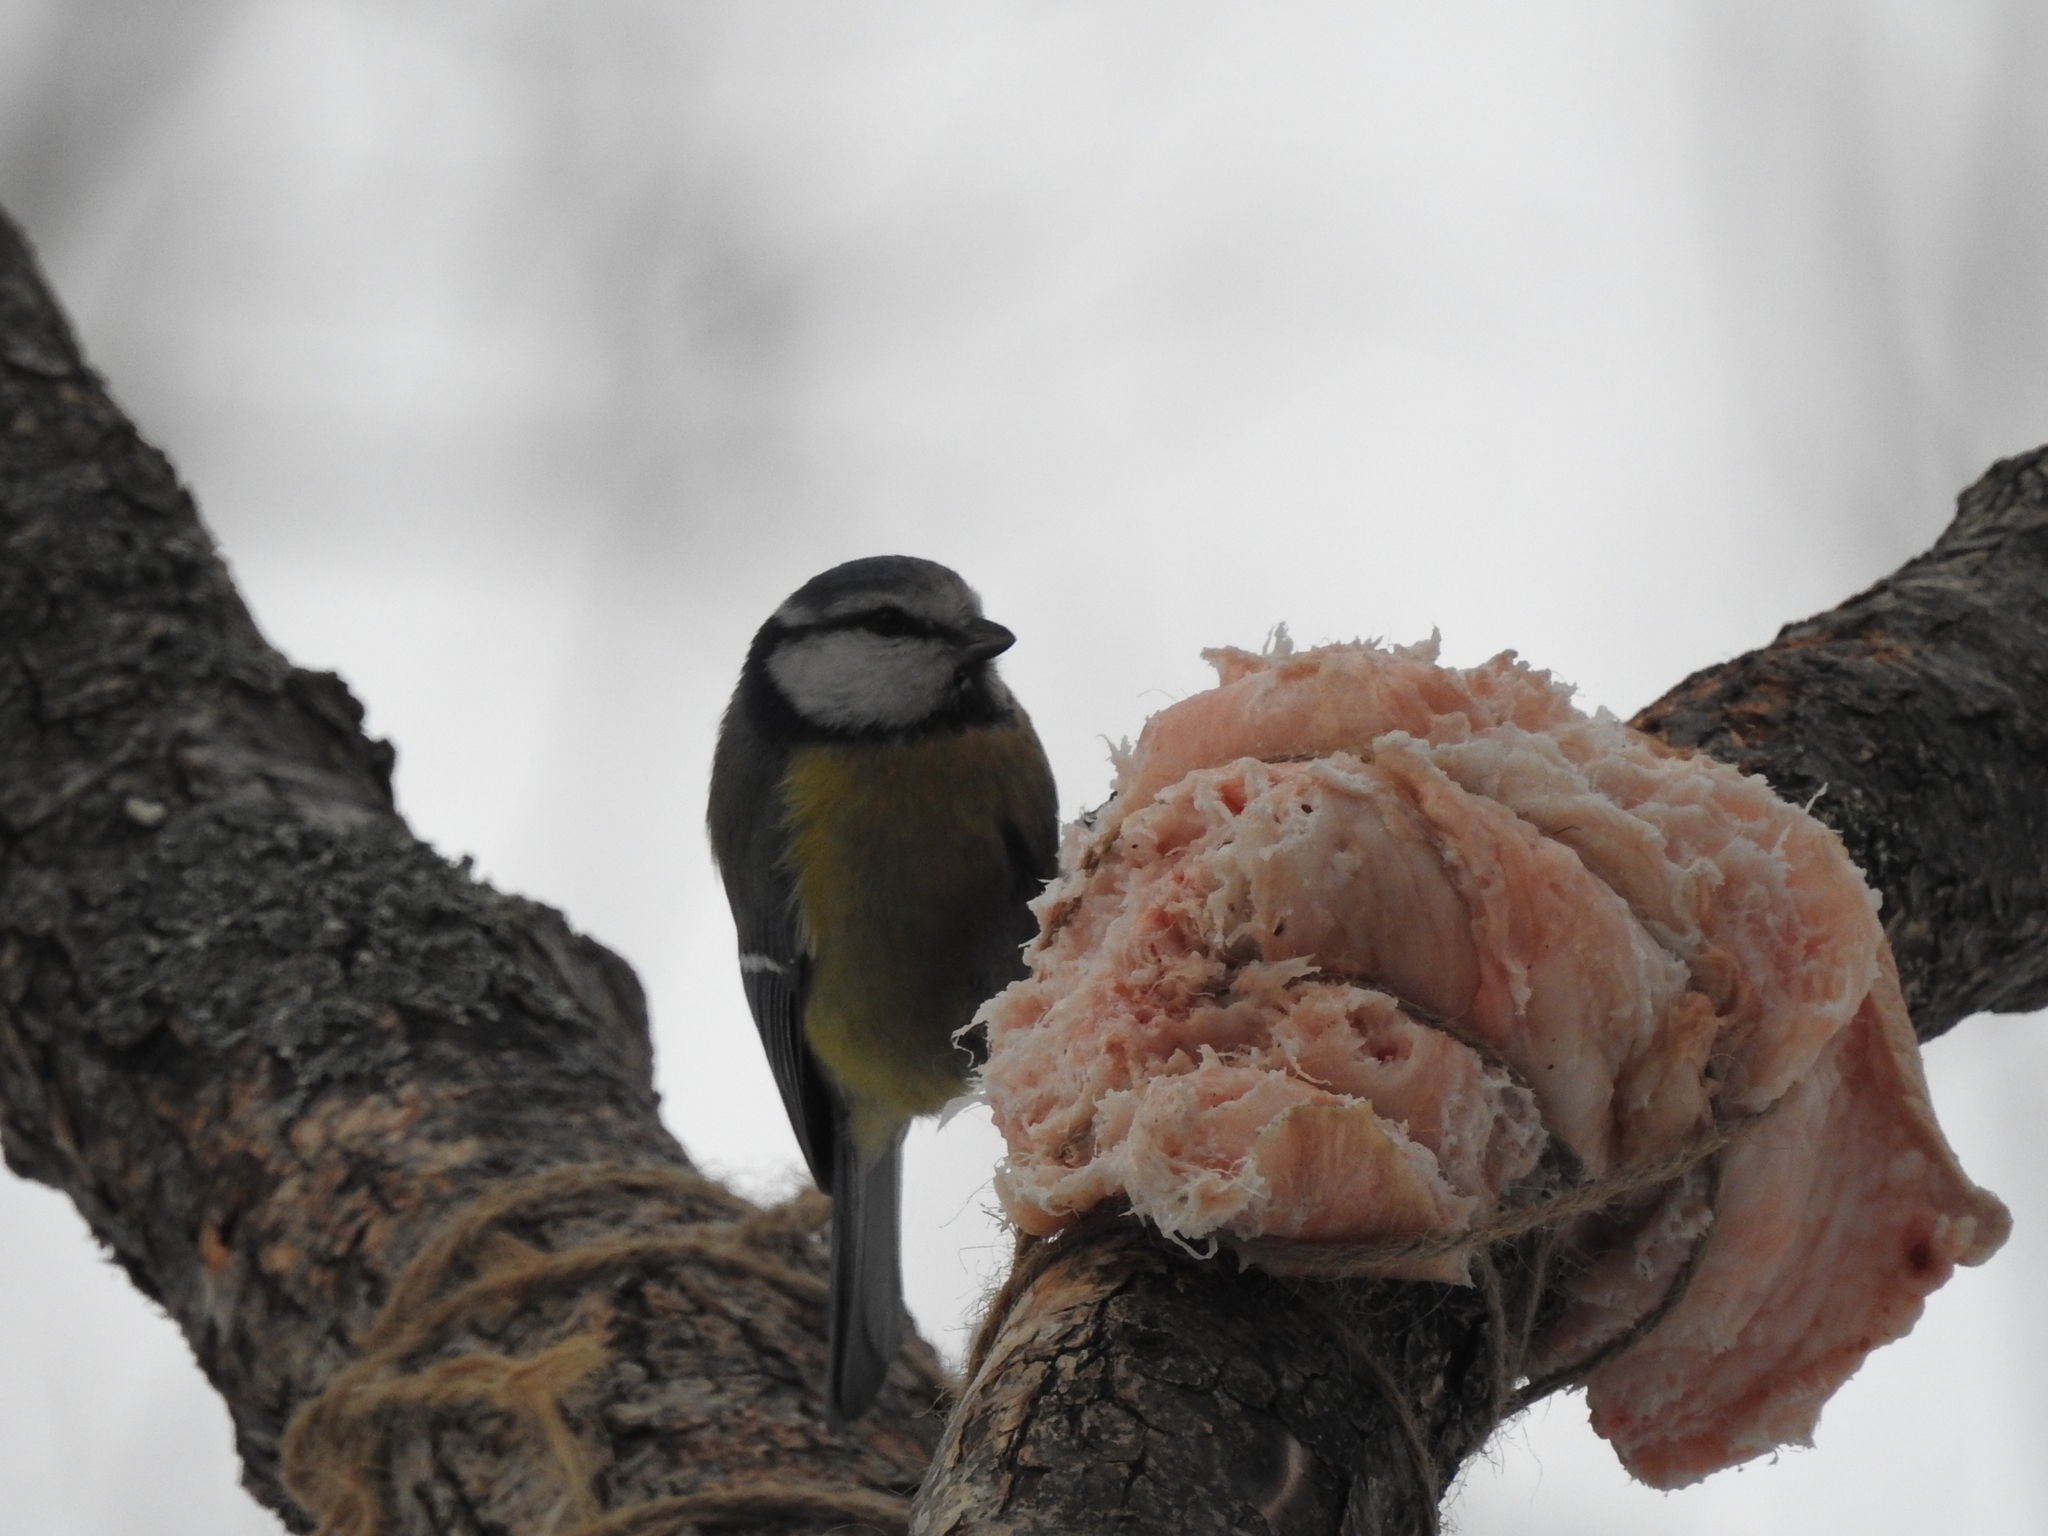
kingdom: Animalia
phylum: Chordata
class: Aves
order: Passeriformes
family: Paridae
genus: Cyanistes
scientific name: Cyanistes caeruleus
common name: Eurasian blue tit
